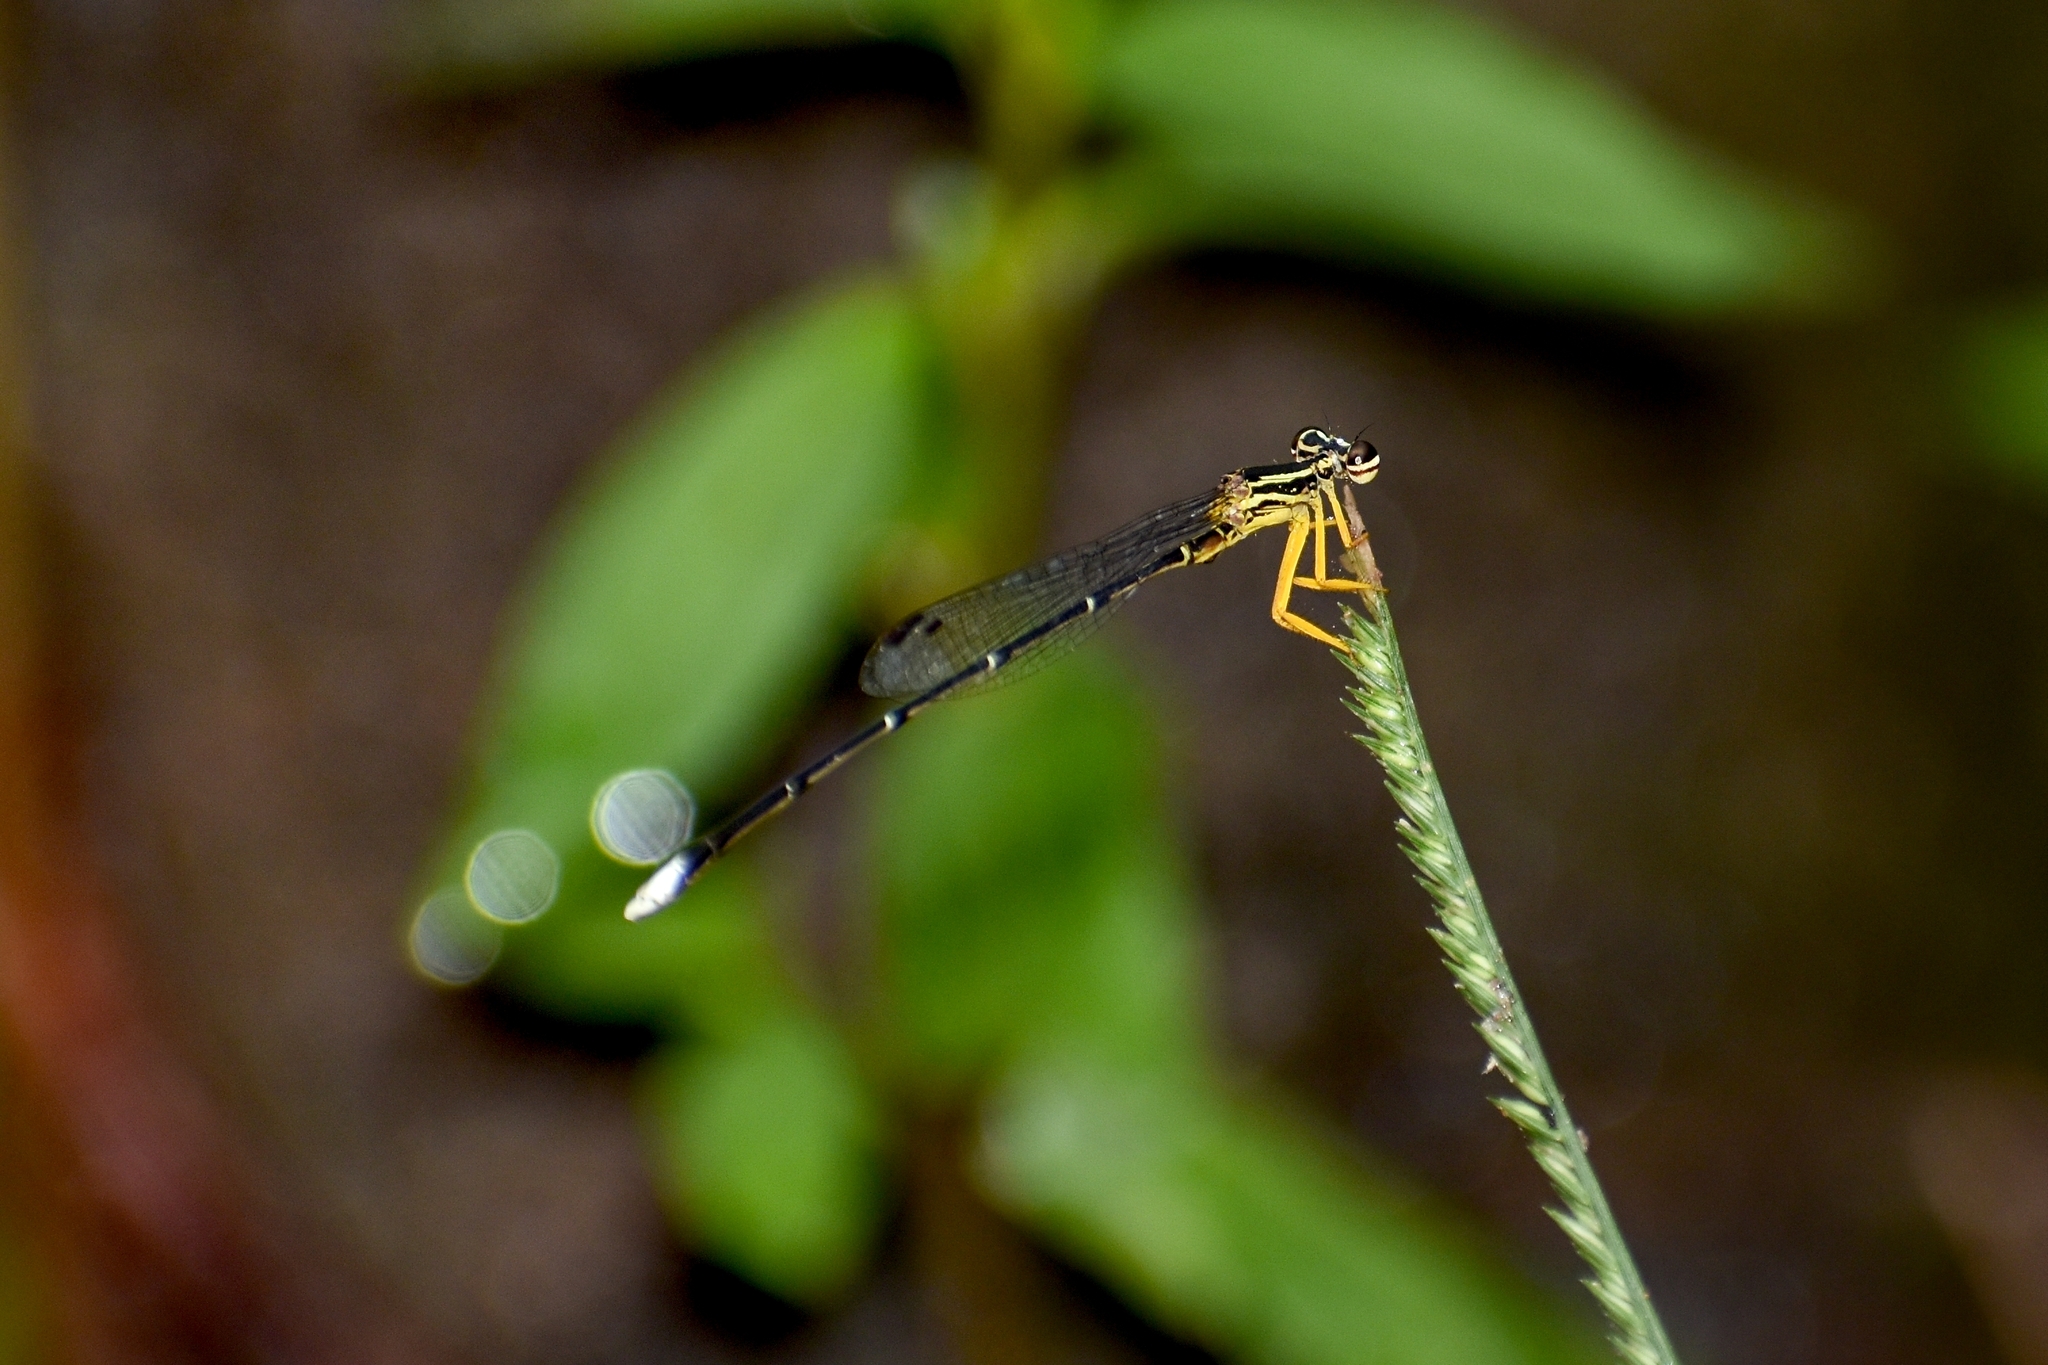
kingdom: Animalia
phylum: Arthropoda
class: Insecta
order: Odonata
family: Platycnemididae
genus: Copera
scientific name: Copera marginipes
